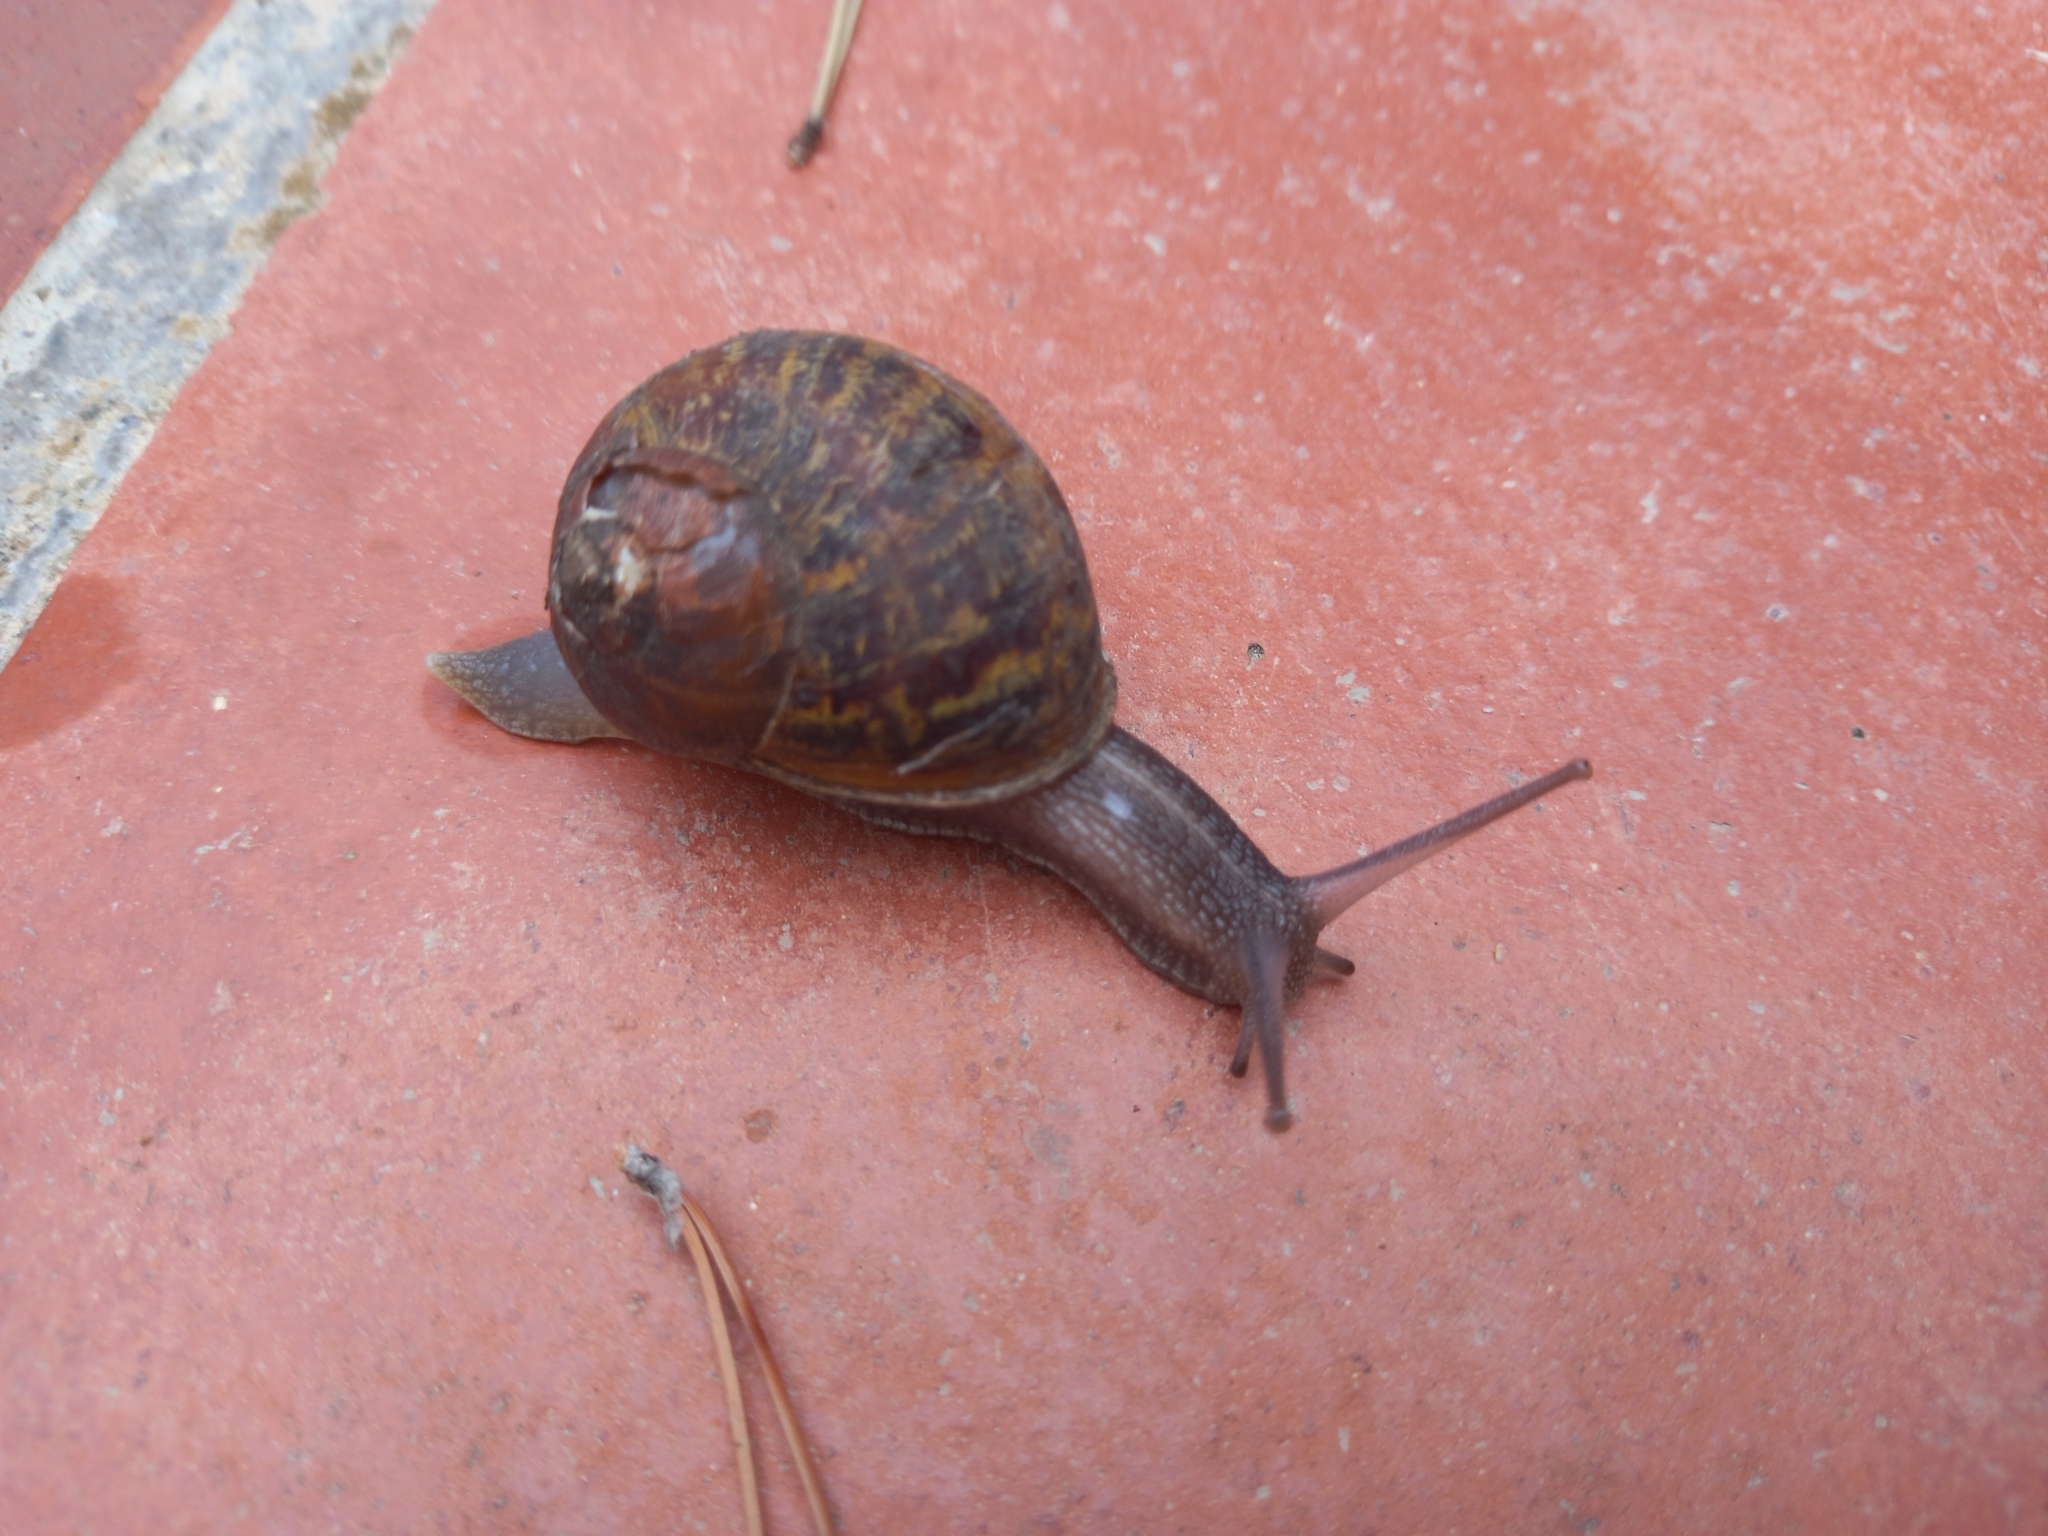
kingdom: Animalia
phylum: Mollusca
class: Gastropoda
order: Stylommatophora
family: Helicidae
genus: Cornu
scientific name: Cornu aspersum
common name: Brown garden snail
